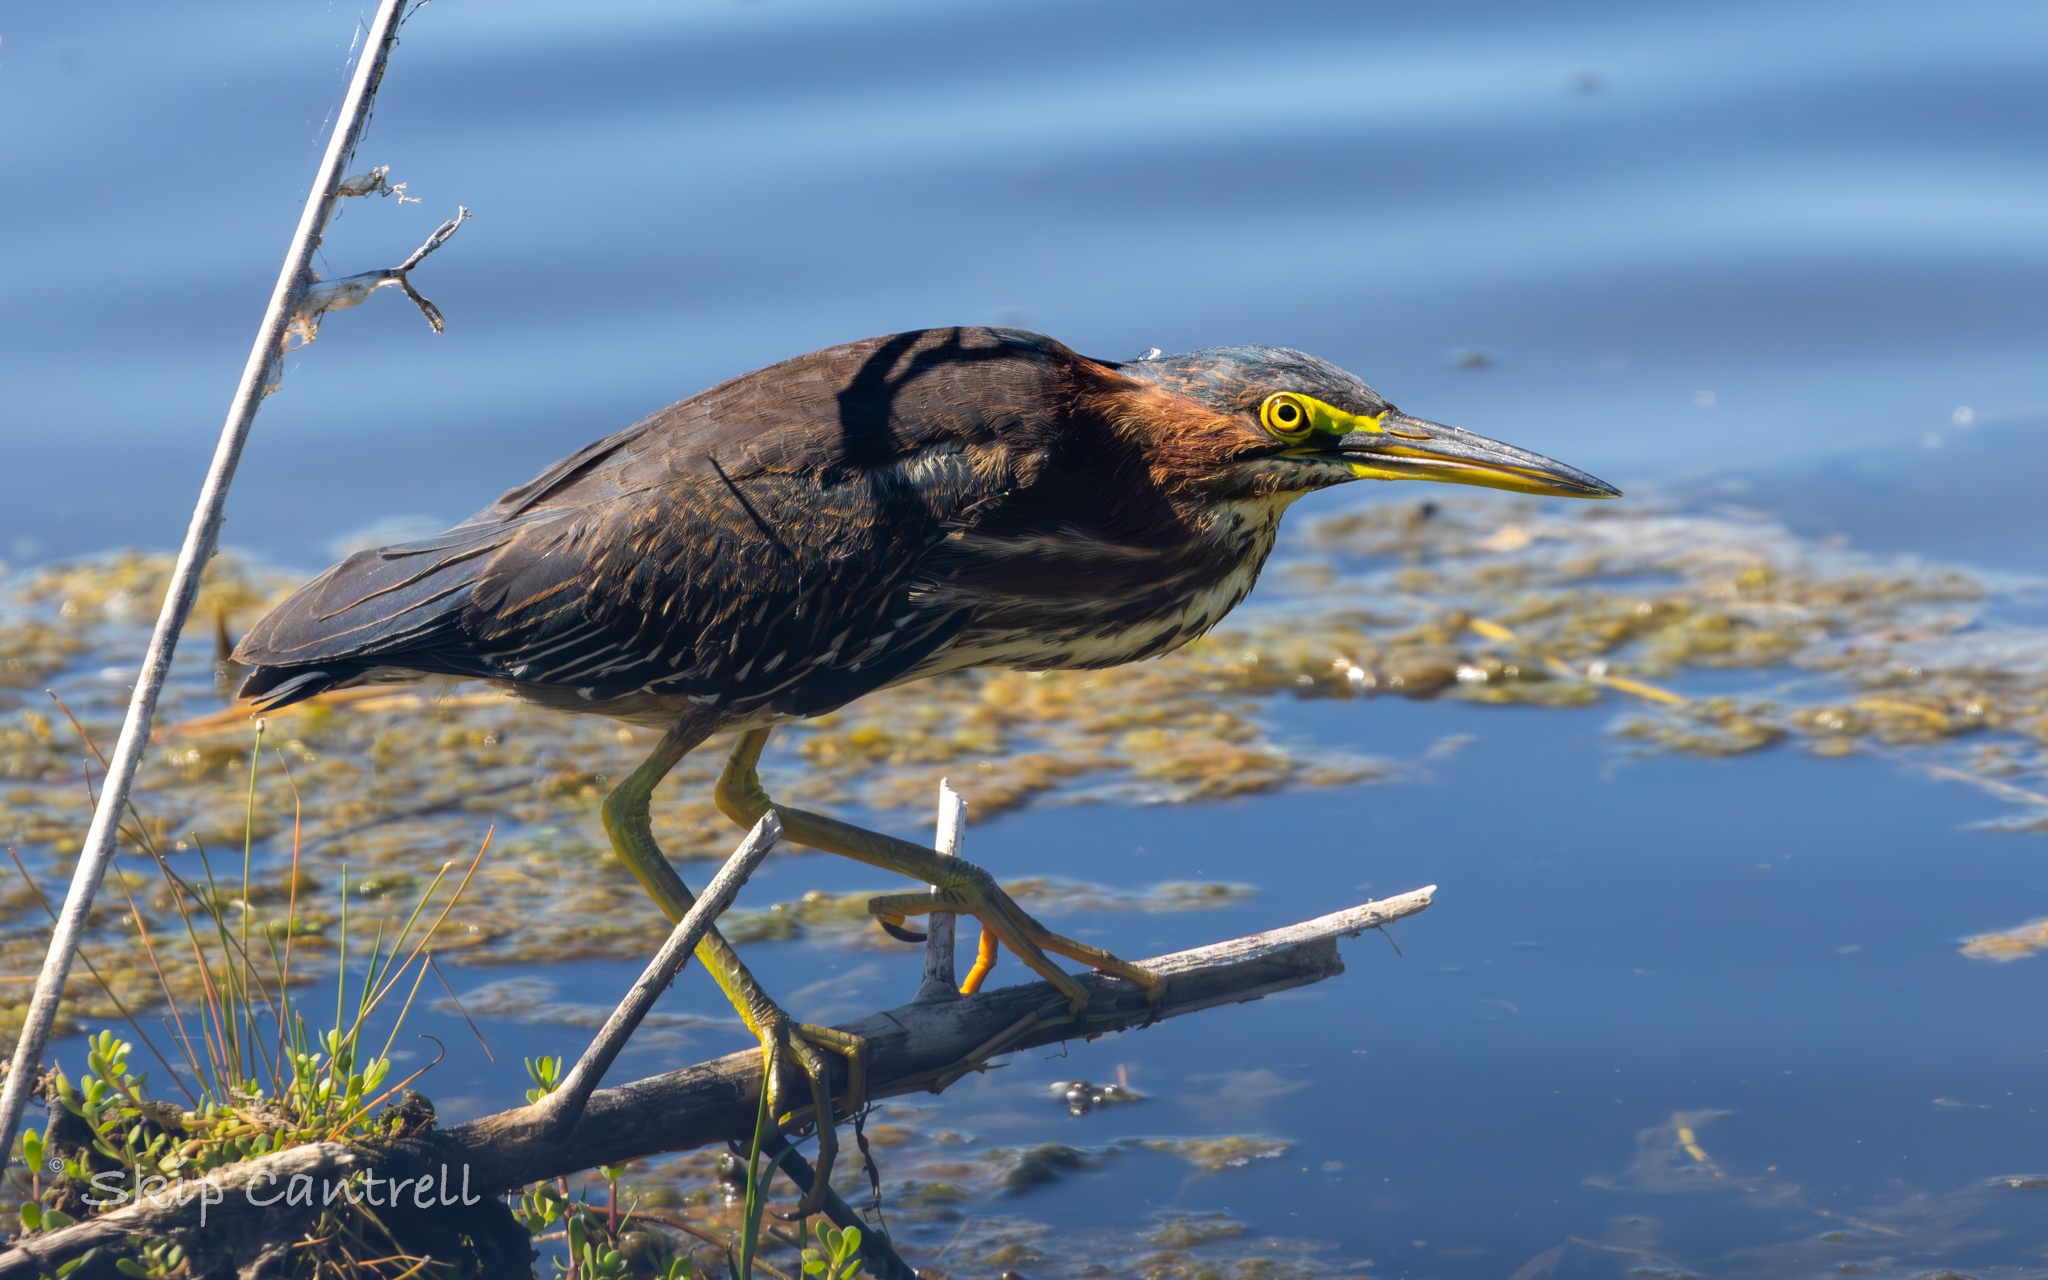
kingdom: Animalia
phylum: Chordata
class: Aves
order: Pelecaniformes
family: Ardeidae
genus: Butorides
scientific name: Butorides virescens
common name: Green heron
